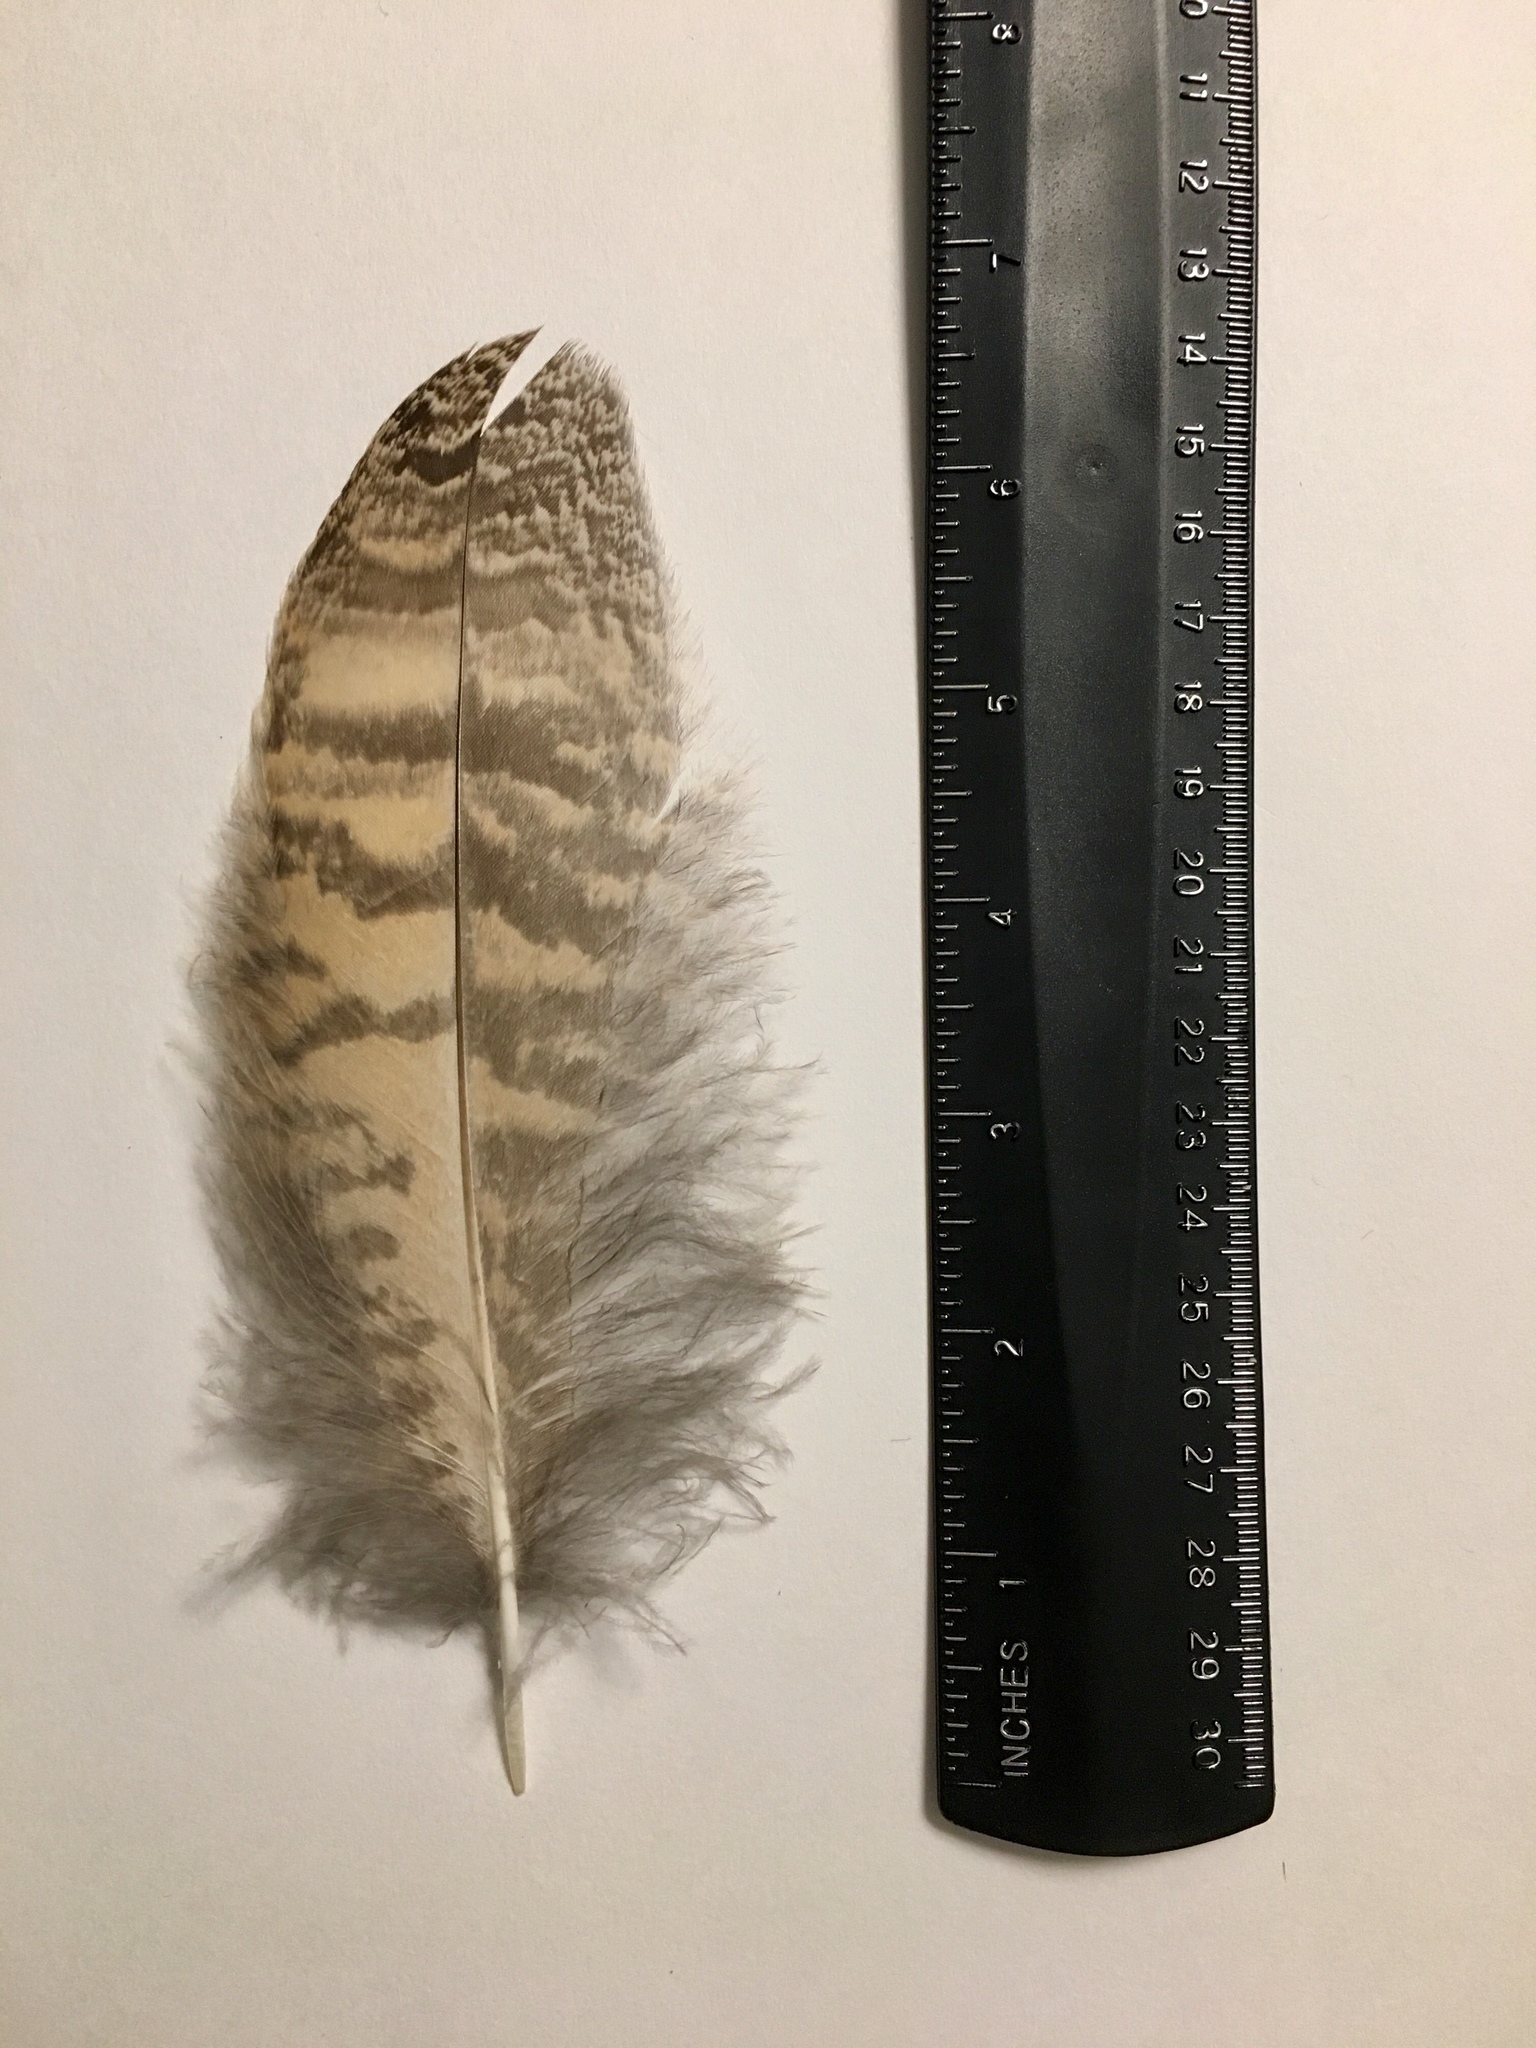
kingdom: Animalia
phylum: Chordata
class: Aves
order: Strigiformes
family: Strigidae
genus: Bubo
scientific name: Bubo virginianus
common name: Great horned owl
